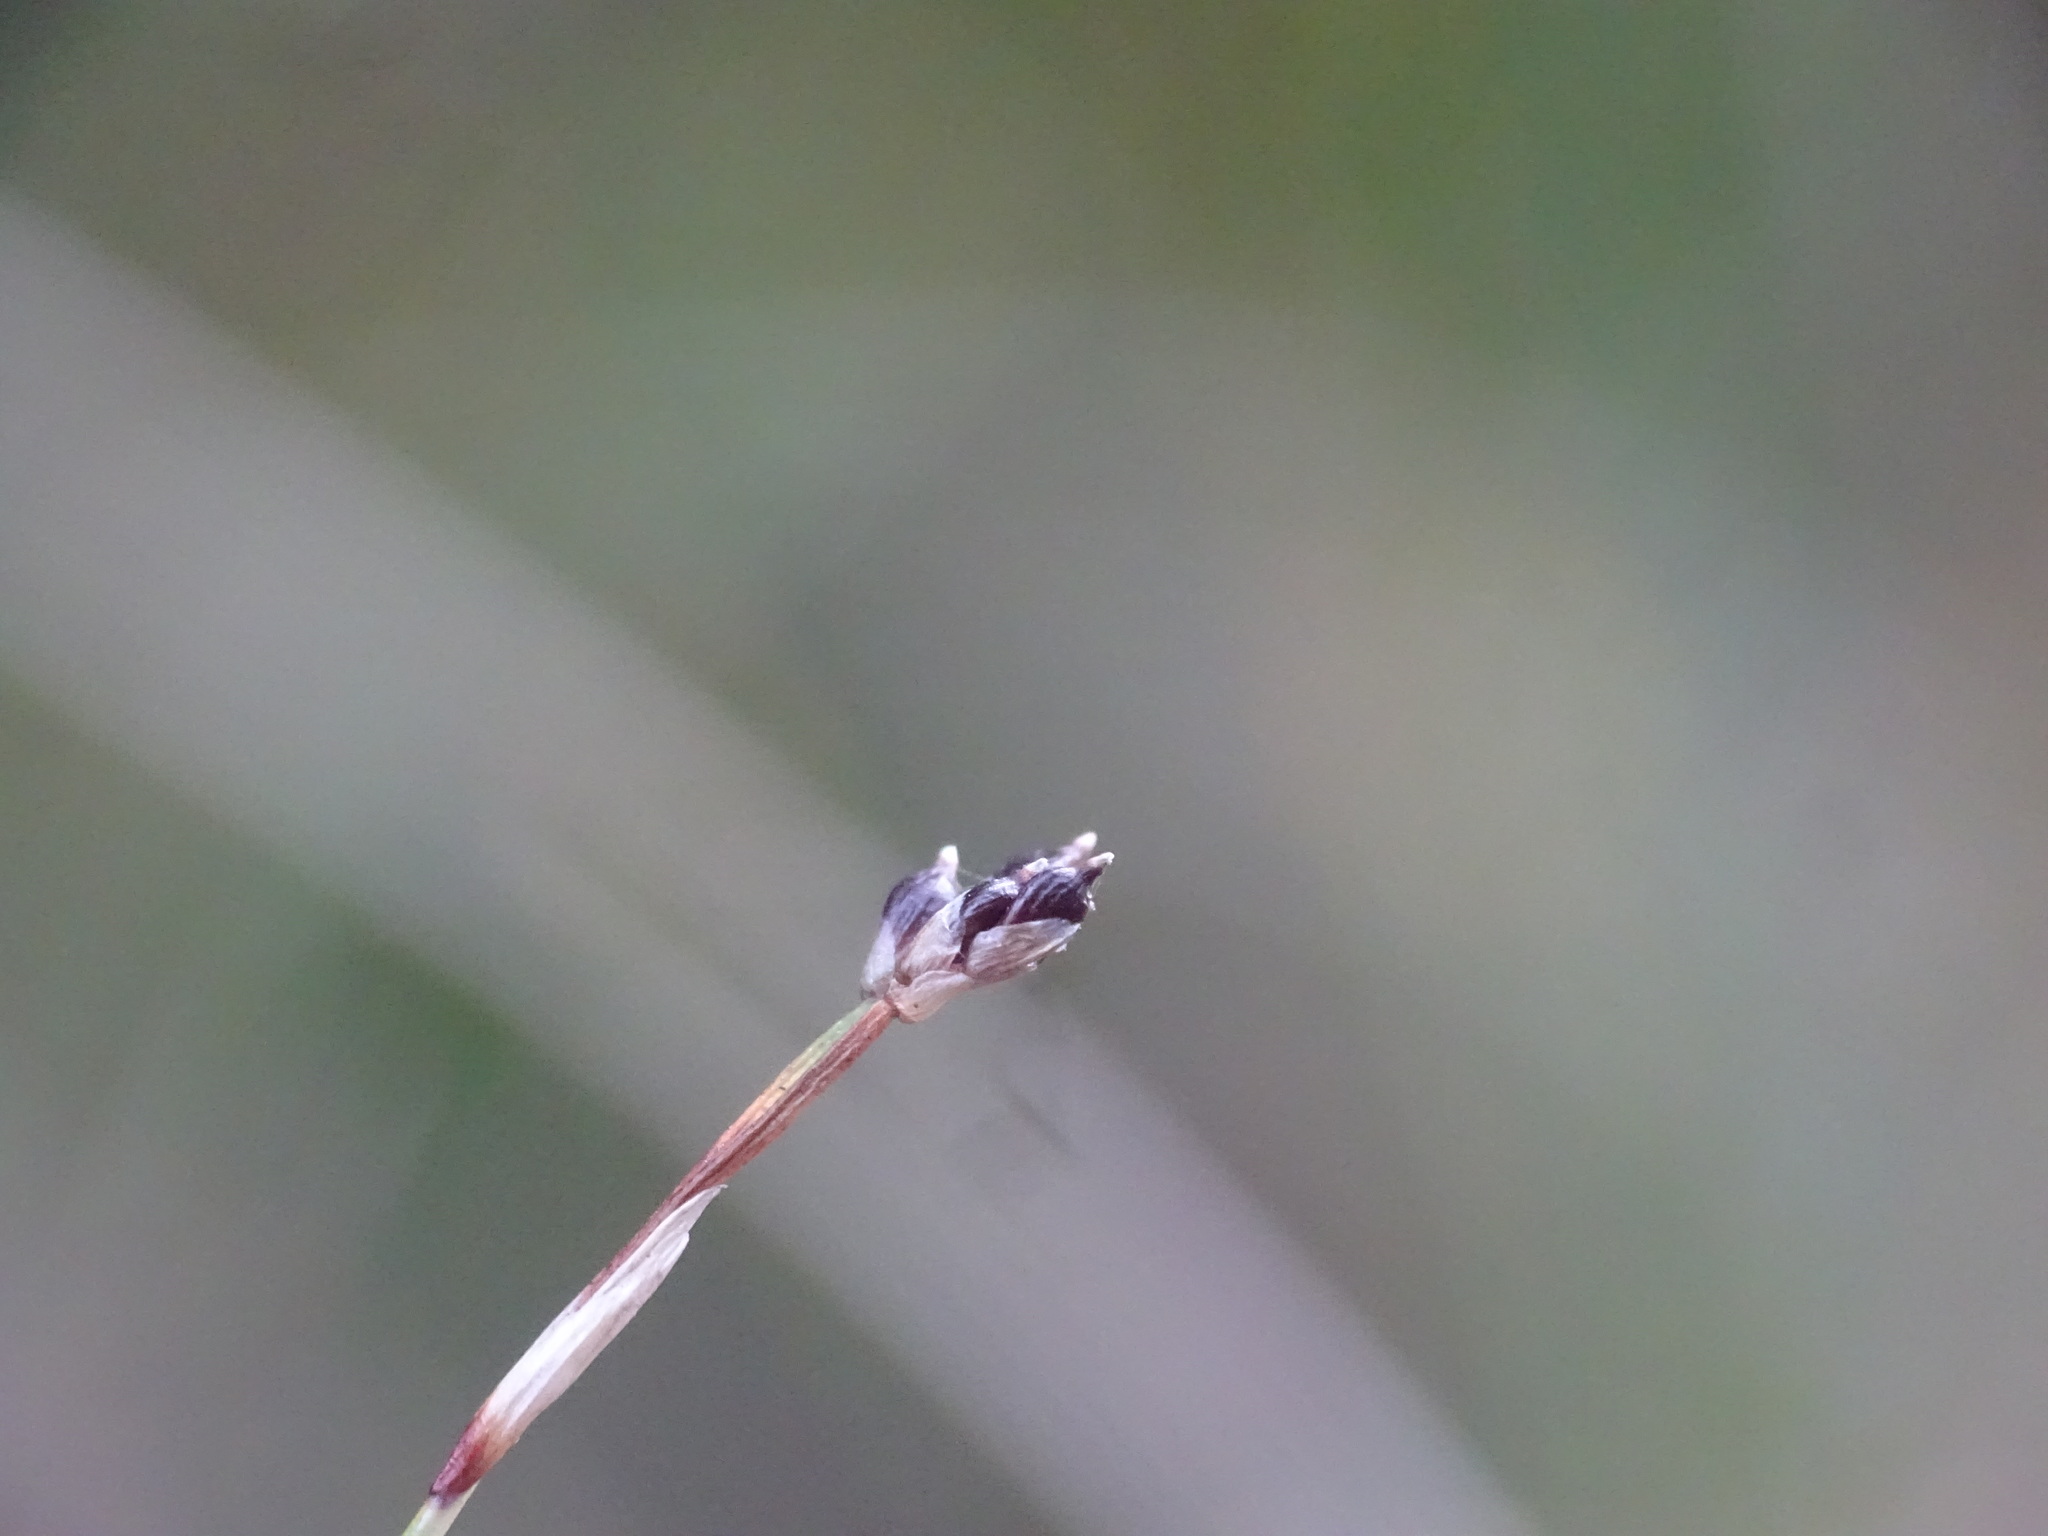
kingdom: Plantae
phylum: Tracheophyta
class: Liliopsida
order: Poales
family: Cyperaceae
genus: Carex
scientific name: Carex eburnea
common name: Bristle-leaved sedge
